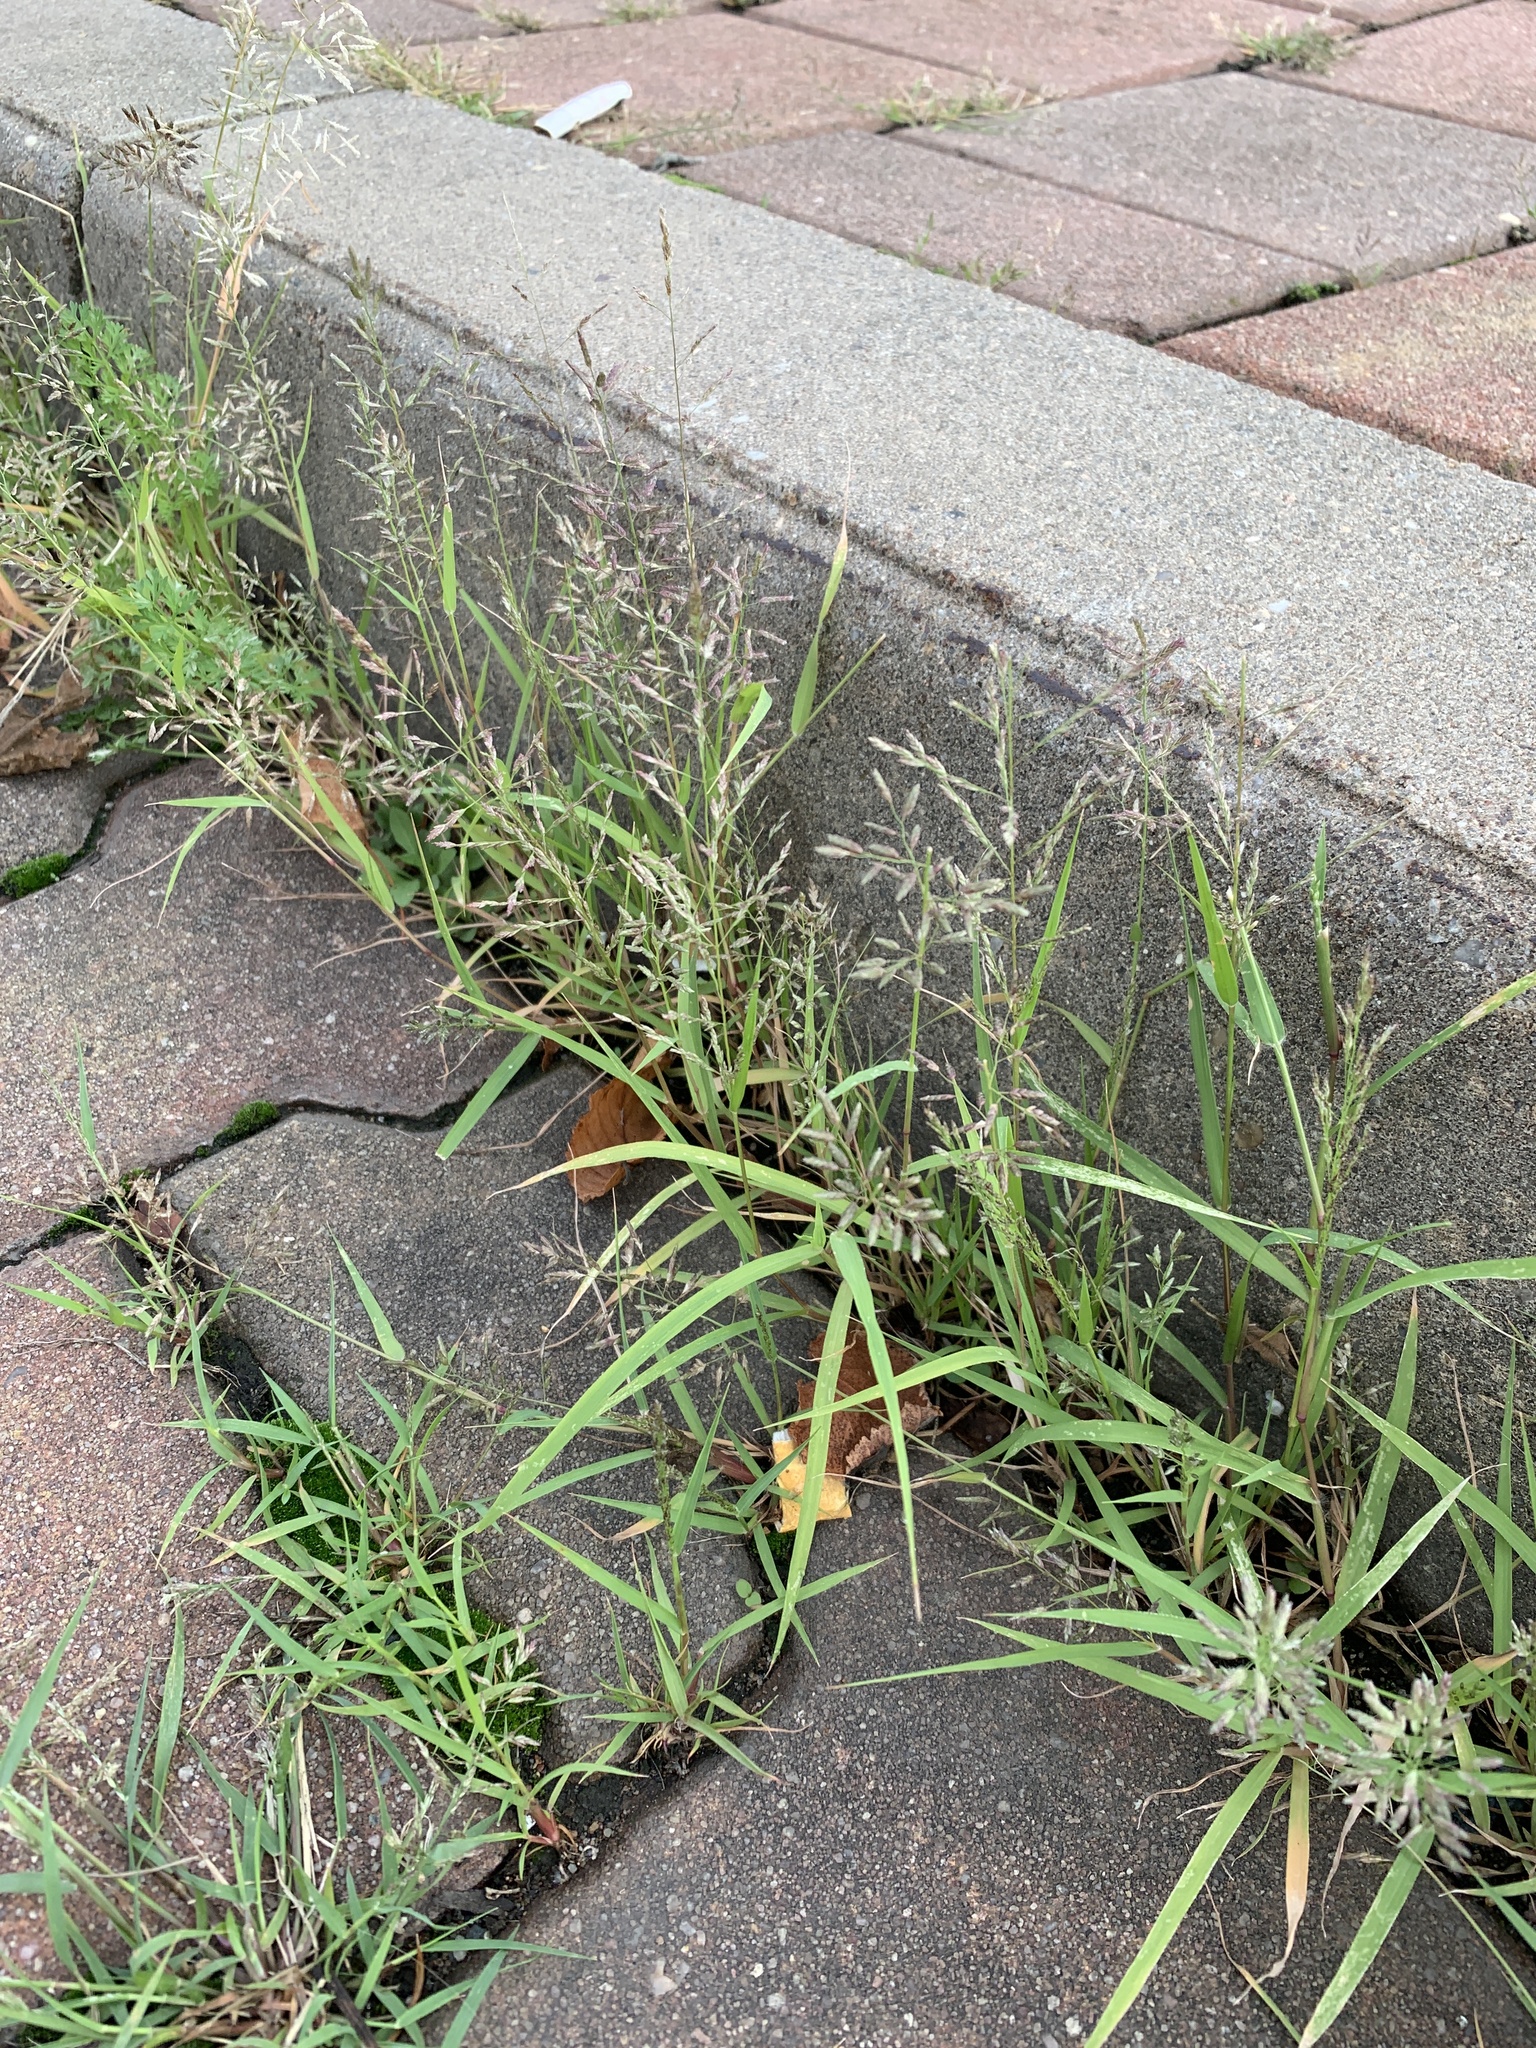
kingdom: Plantae
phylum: Tracheophyta
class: Liliopsida
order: Poales
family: Poaceae
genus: Eragrostis
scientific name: Eragrostis minor
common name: Small love-grass
